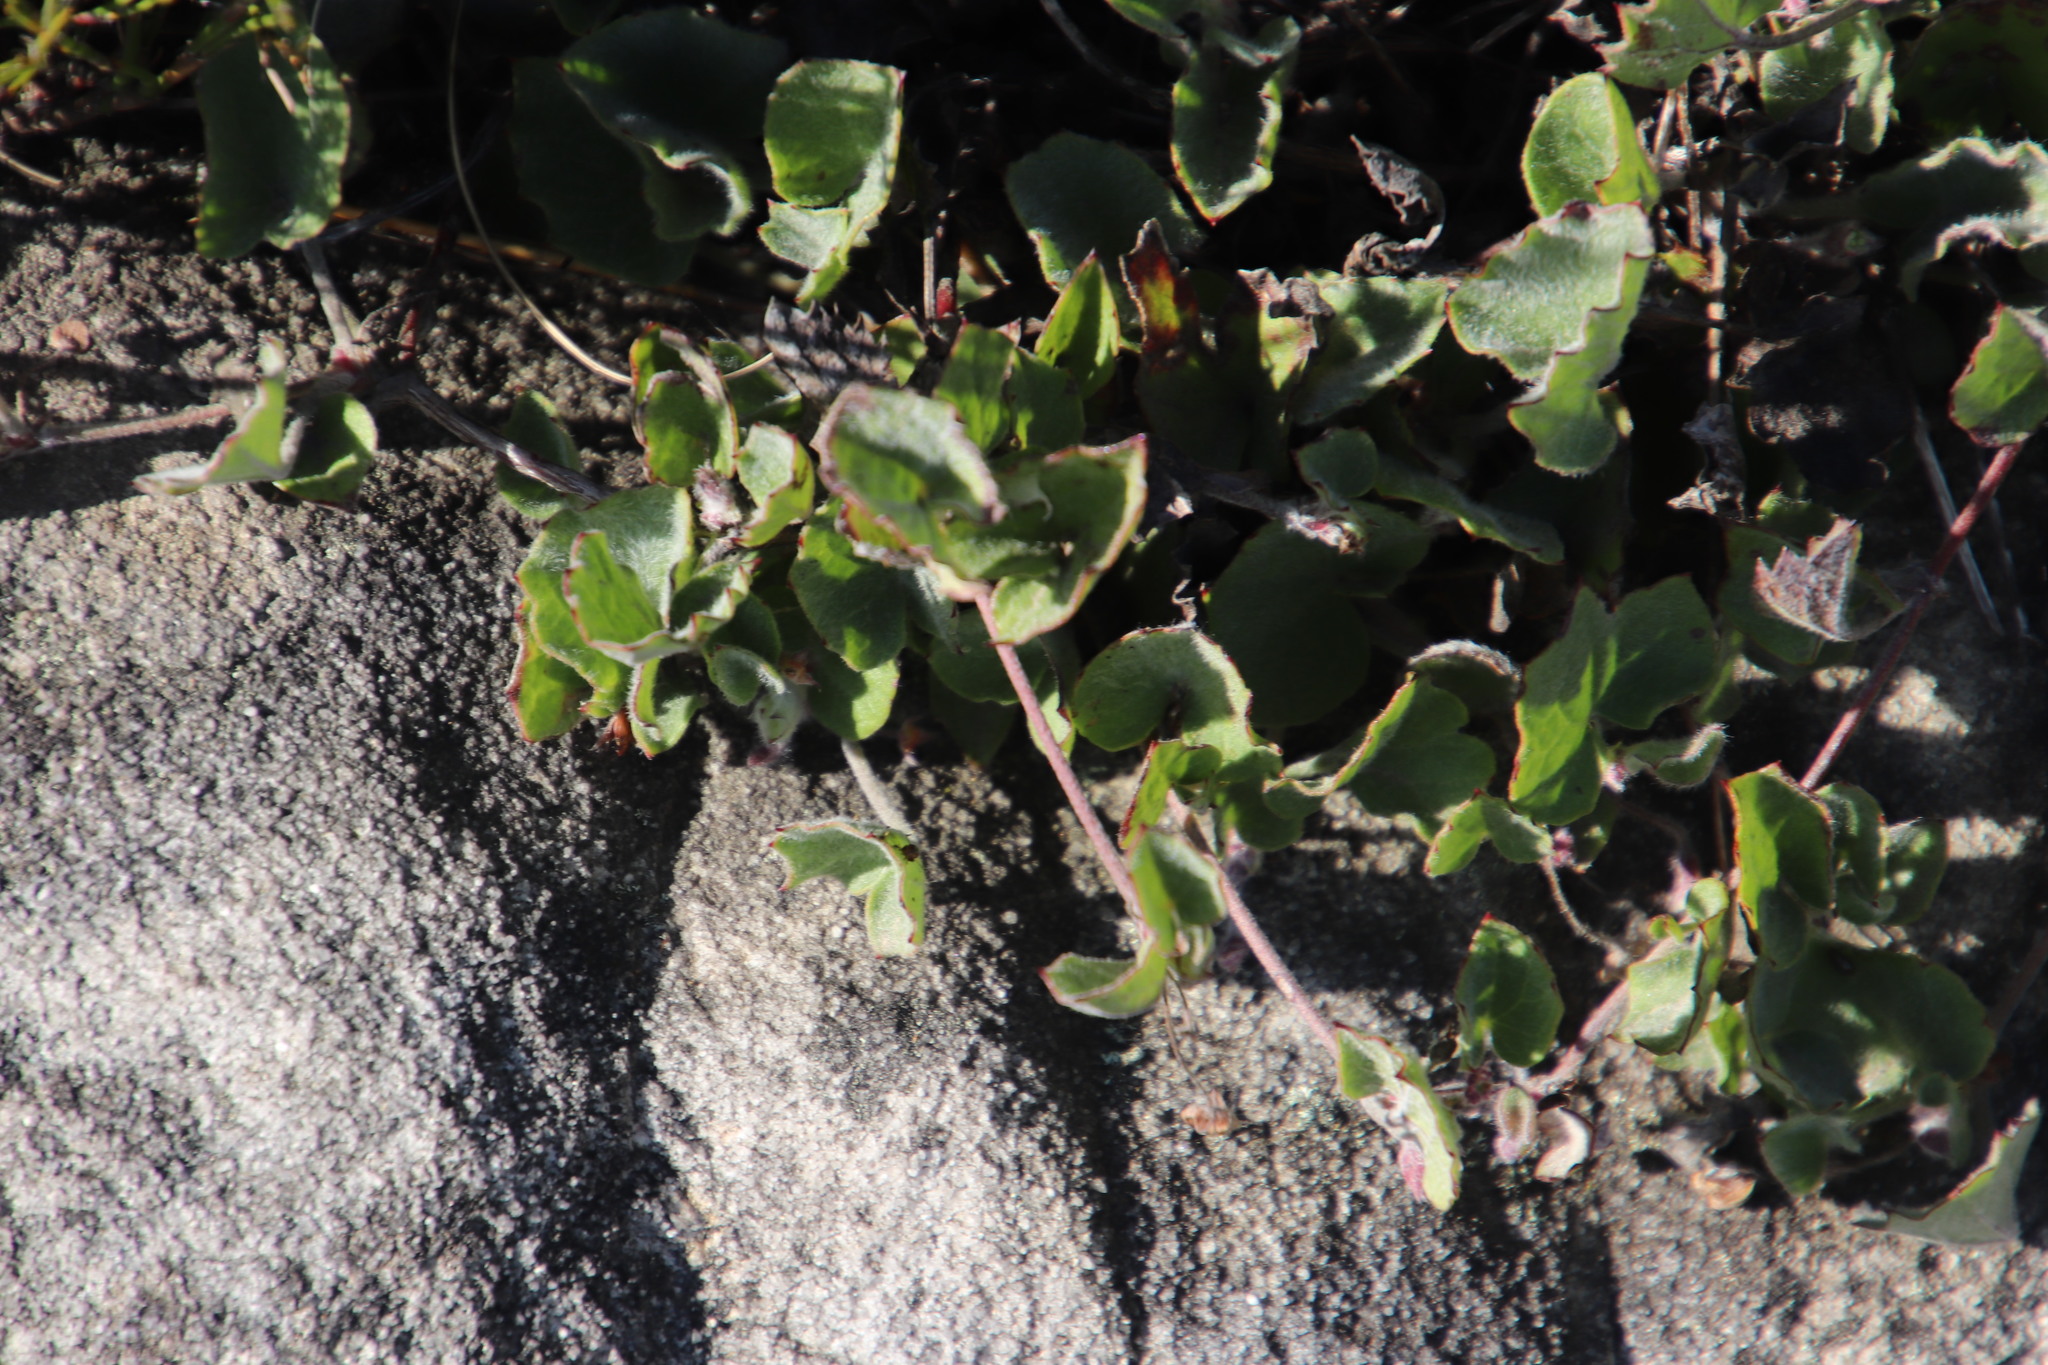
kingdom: Plantae
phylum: Tracheophyta
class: Magnoliopsida
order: Apiales
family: Apiaceae
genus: Centella
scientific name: Centella eriantha
